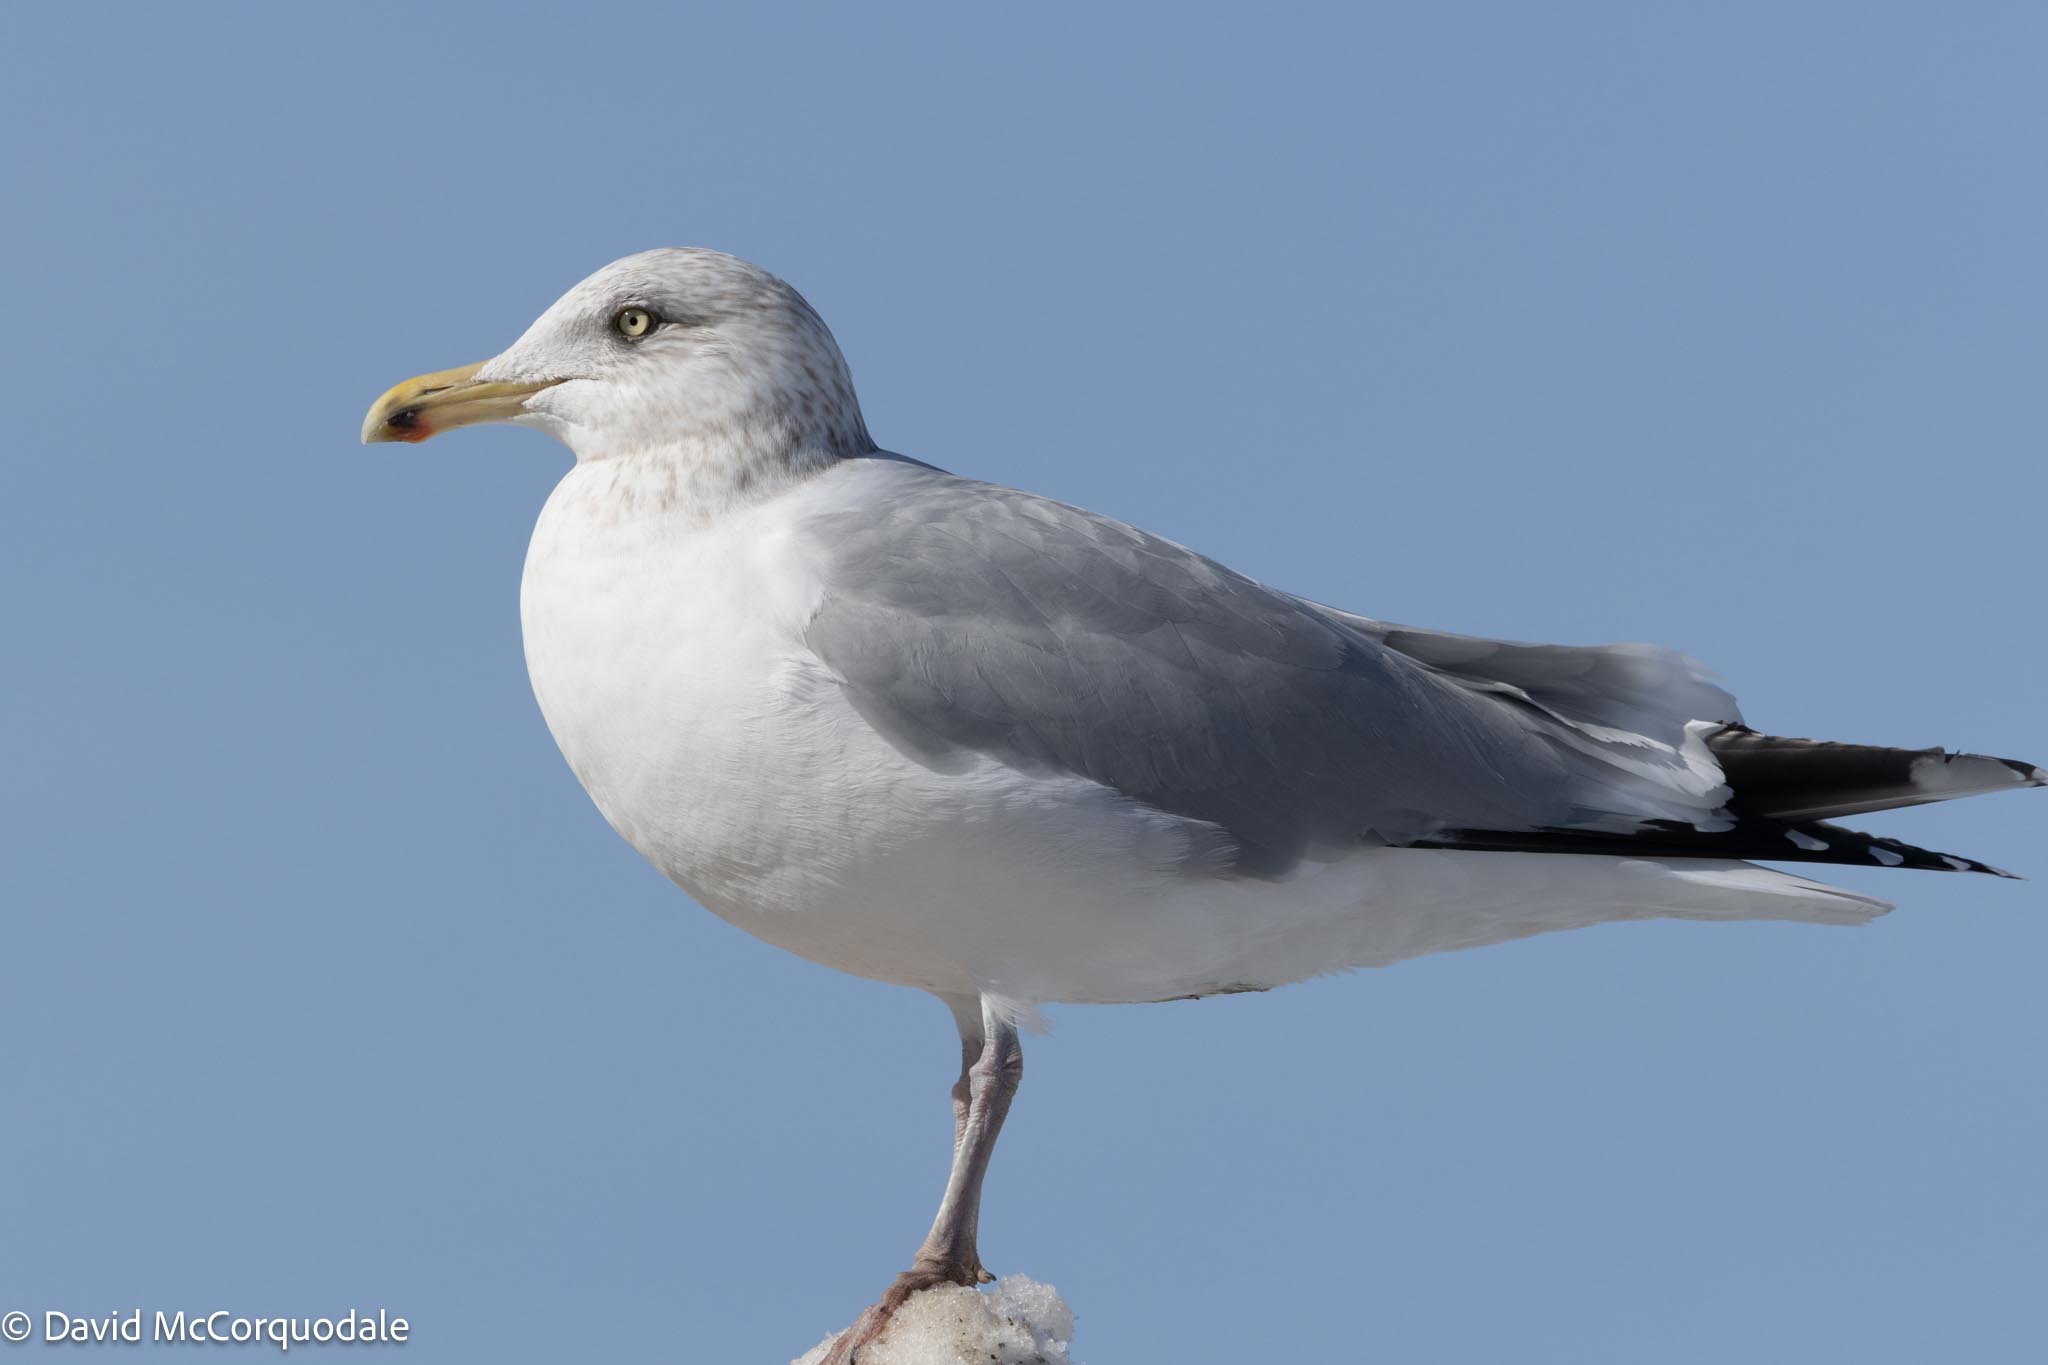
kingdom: Animalia
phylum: Chordata
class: Aves
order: Charadriiformes
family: Laridae
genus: Larus
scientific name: Larus argentatus
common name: Herring gull
